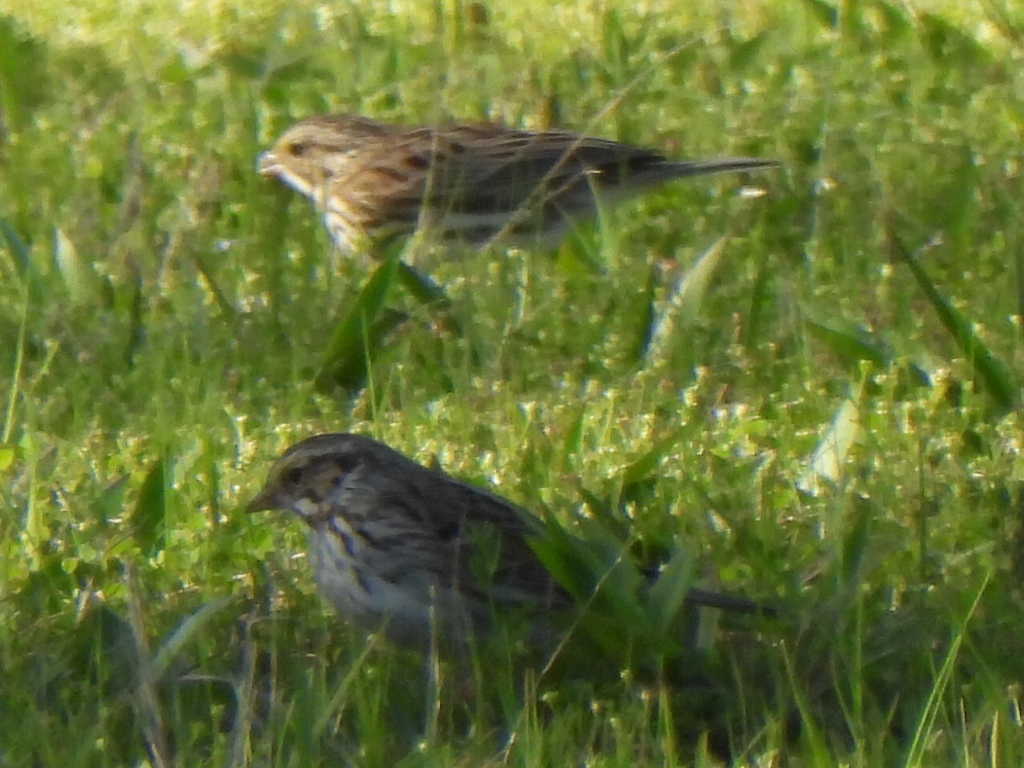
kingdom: Animalia
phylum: Chordata
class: Aves
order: Passeriformes
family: Passerellidae
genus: Passerculus
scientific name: Passerculus sandwichensis
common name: Savannah sparrow
